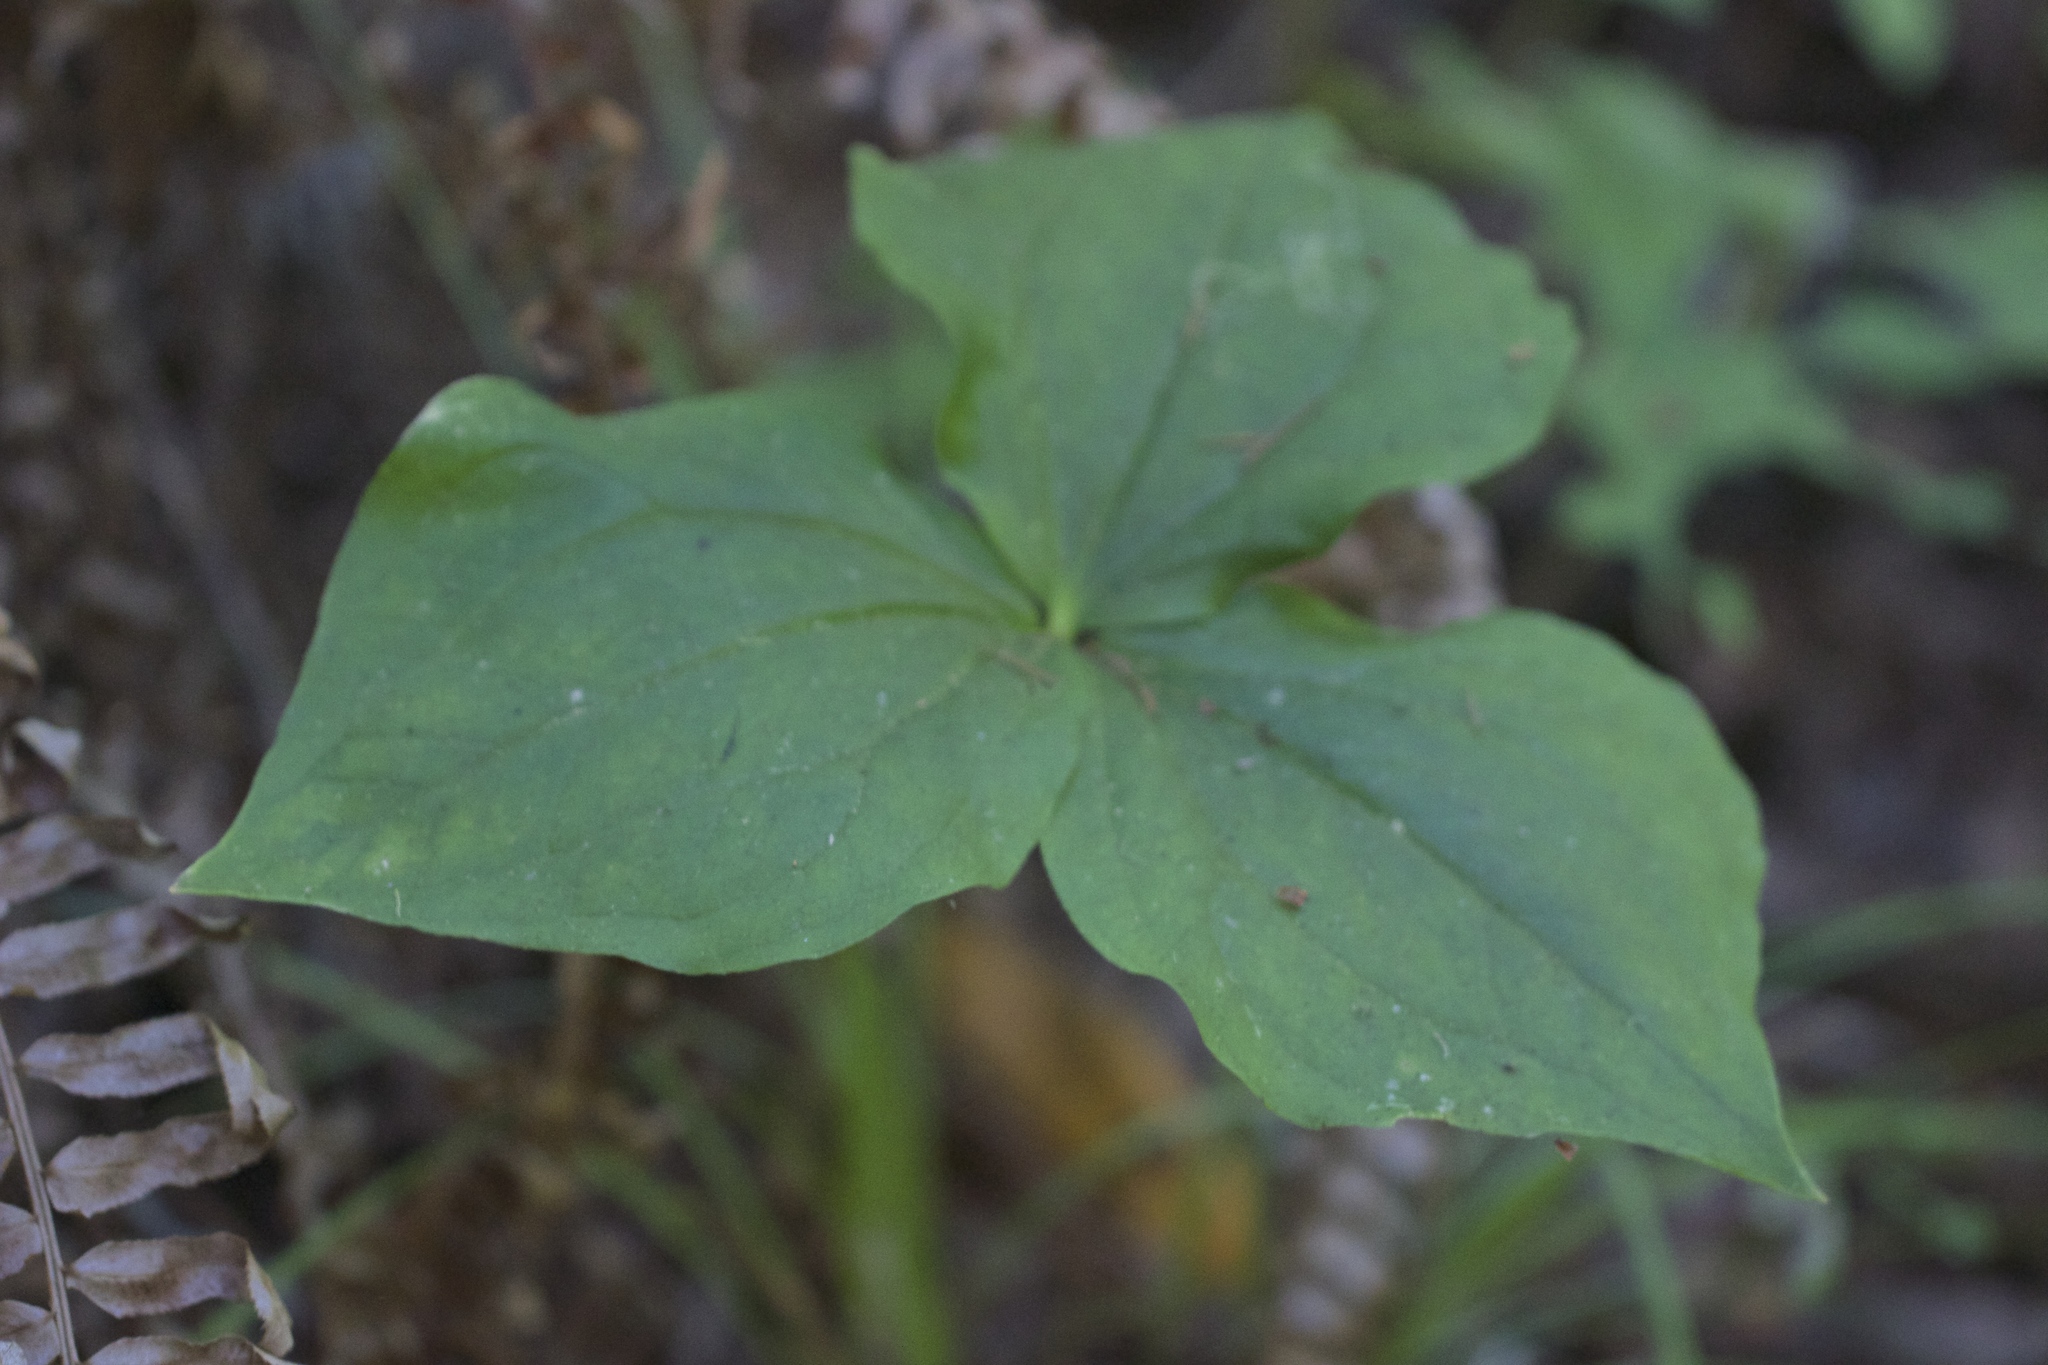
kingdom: Plantae
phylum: Tracheophyta
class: Liliopsida
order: Liliales
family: Melanthiaceae
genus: Trillium
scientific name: Trillium ovatum
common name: Pacific trillium
